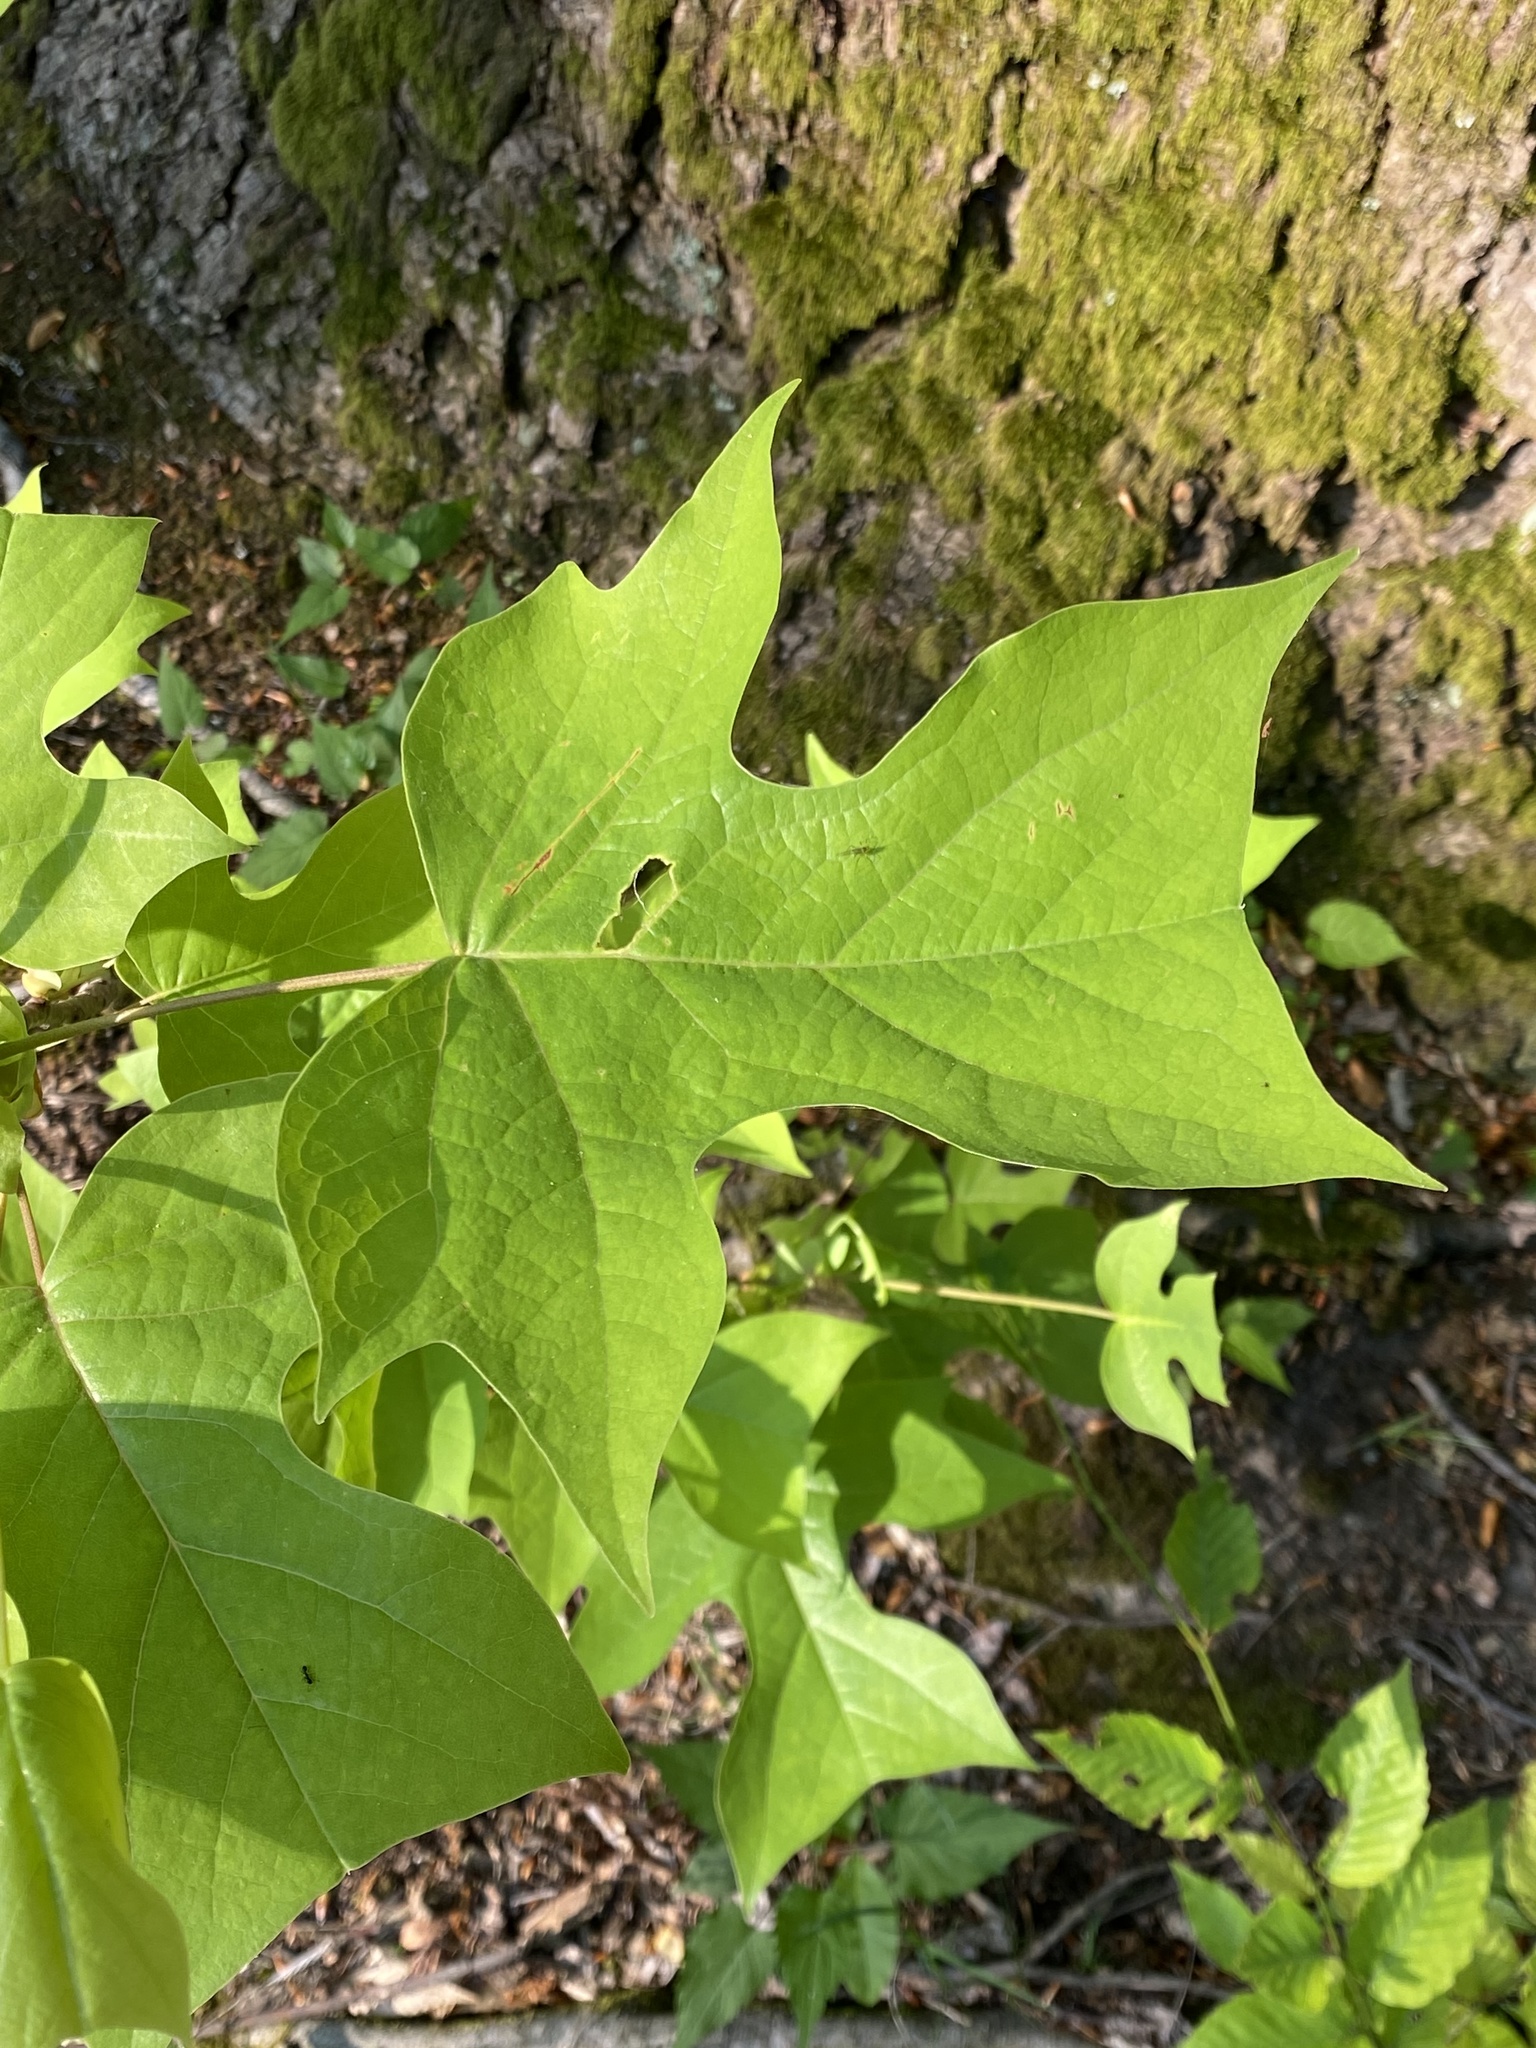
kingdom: Plantae
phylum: Tracheophyta
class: Magnoliopsida
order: Magnoliales
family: Magnoliaceae
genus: Liriodendron
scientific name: Liriodendron tulipifera
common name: Tulip tree
